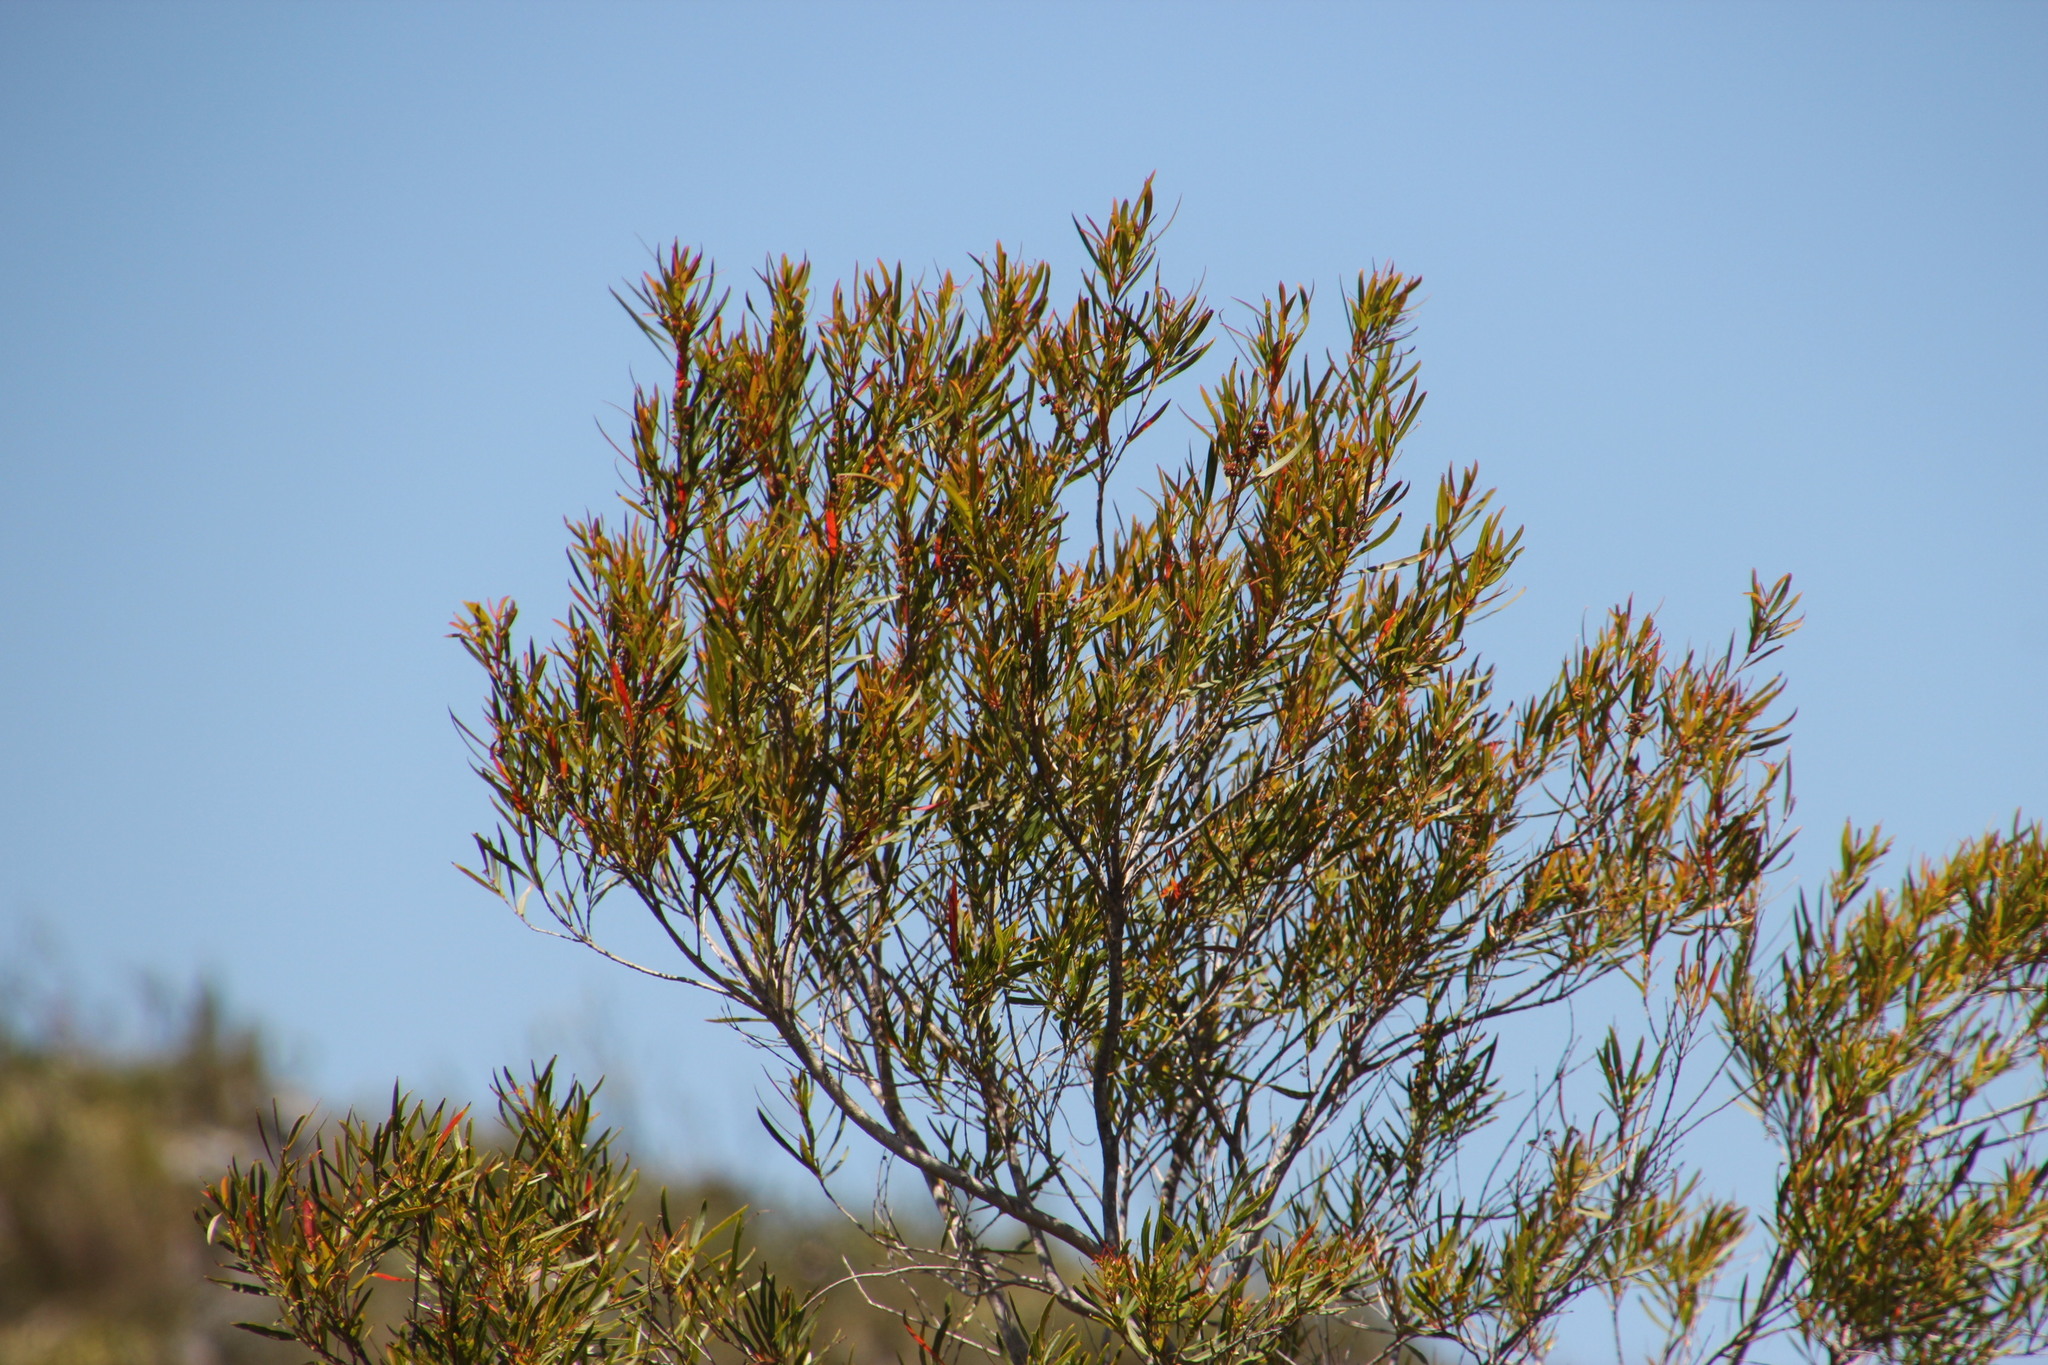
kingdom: Plantae
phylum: Tracheophyta
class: Magnoliopsida
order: Myrtales
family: Myrtaceae
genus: Callistemon
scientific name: Callistemon lanceolatus
